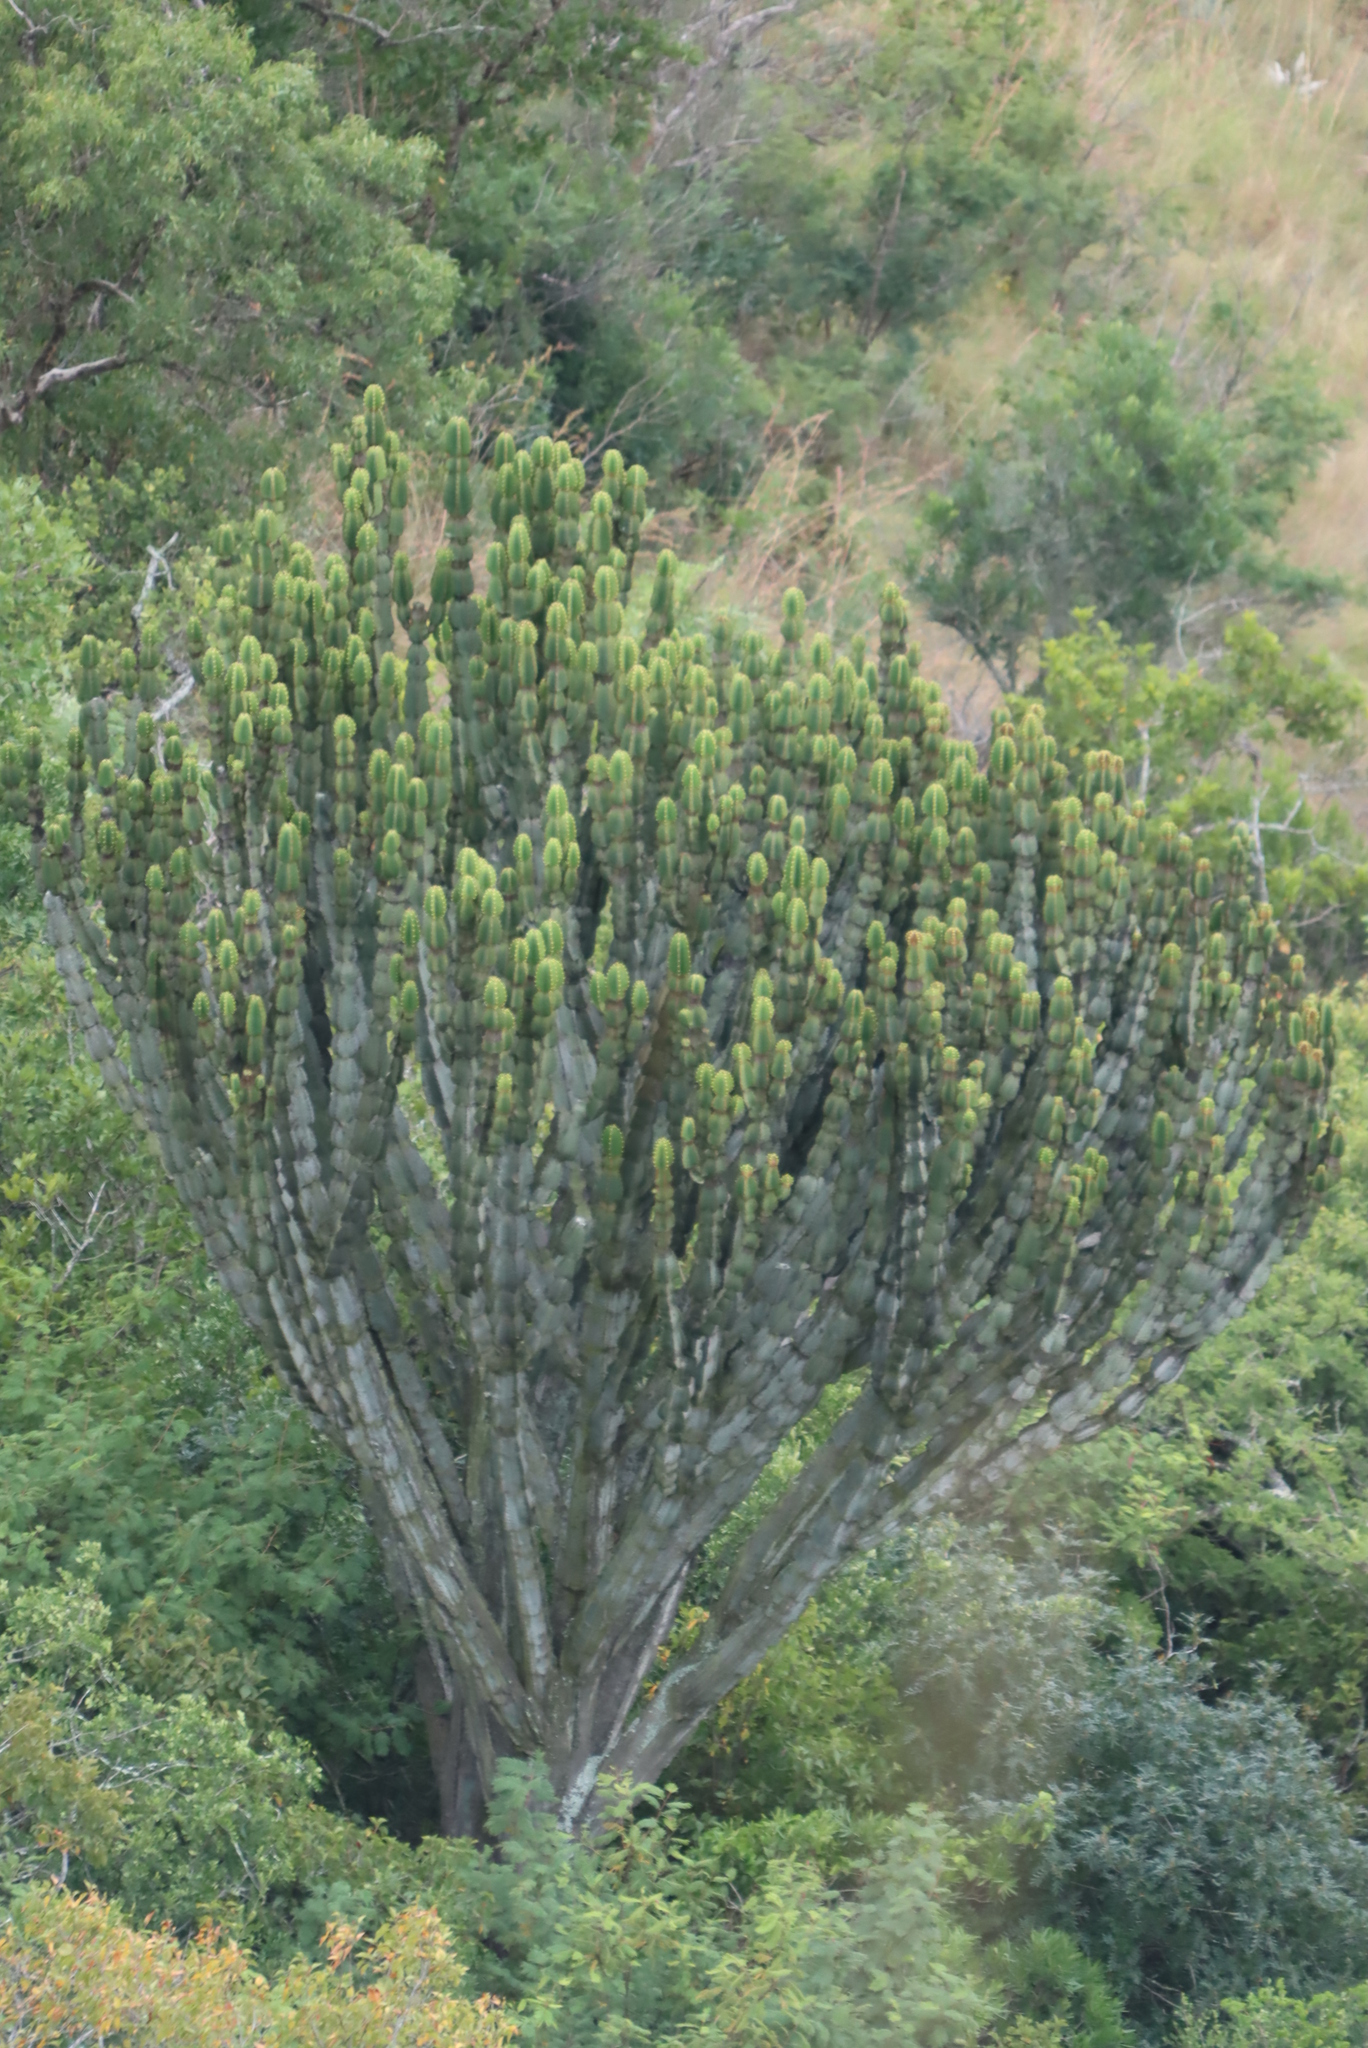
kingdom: Plantae
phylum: Tracheophyta
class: Magnoliopsida
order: Malpighiales
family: Euphorbiaceae
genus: Euphorbia
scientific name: Euphorbia cooperi
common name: Candelabra tree
